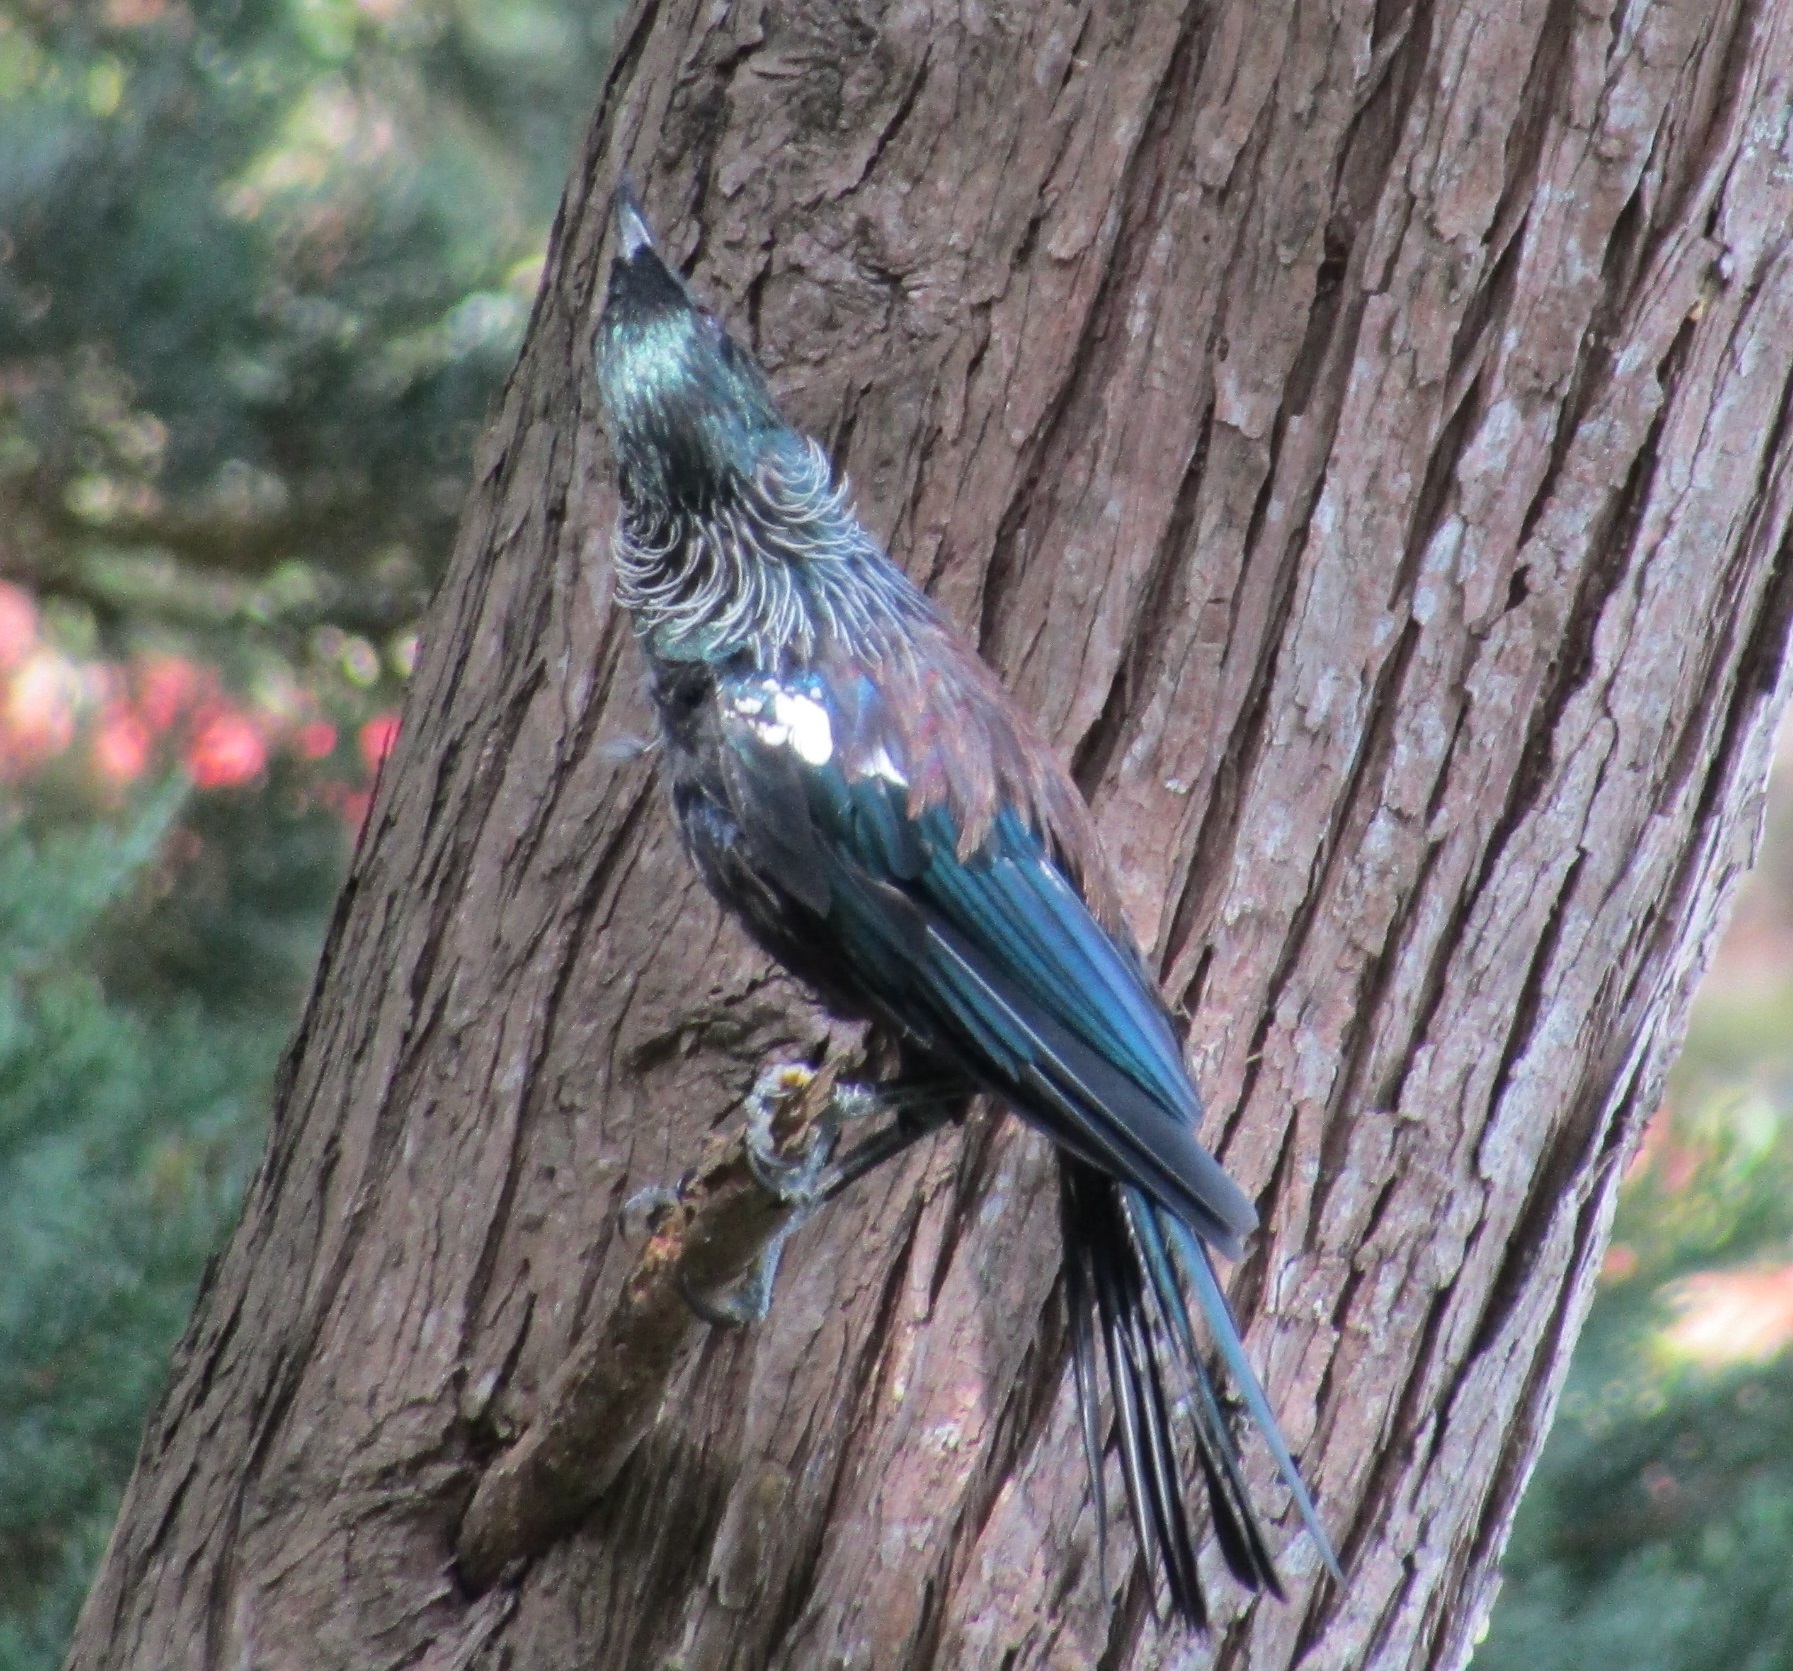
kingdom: Animalia
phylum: Chordata
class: Aves
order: Passeriformes
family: Meliphagidae
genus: Prosthemadera
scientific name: Prosthemadera novaeseelandiae
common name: Tui
